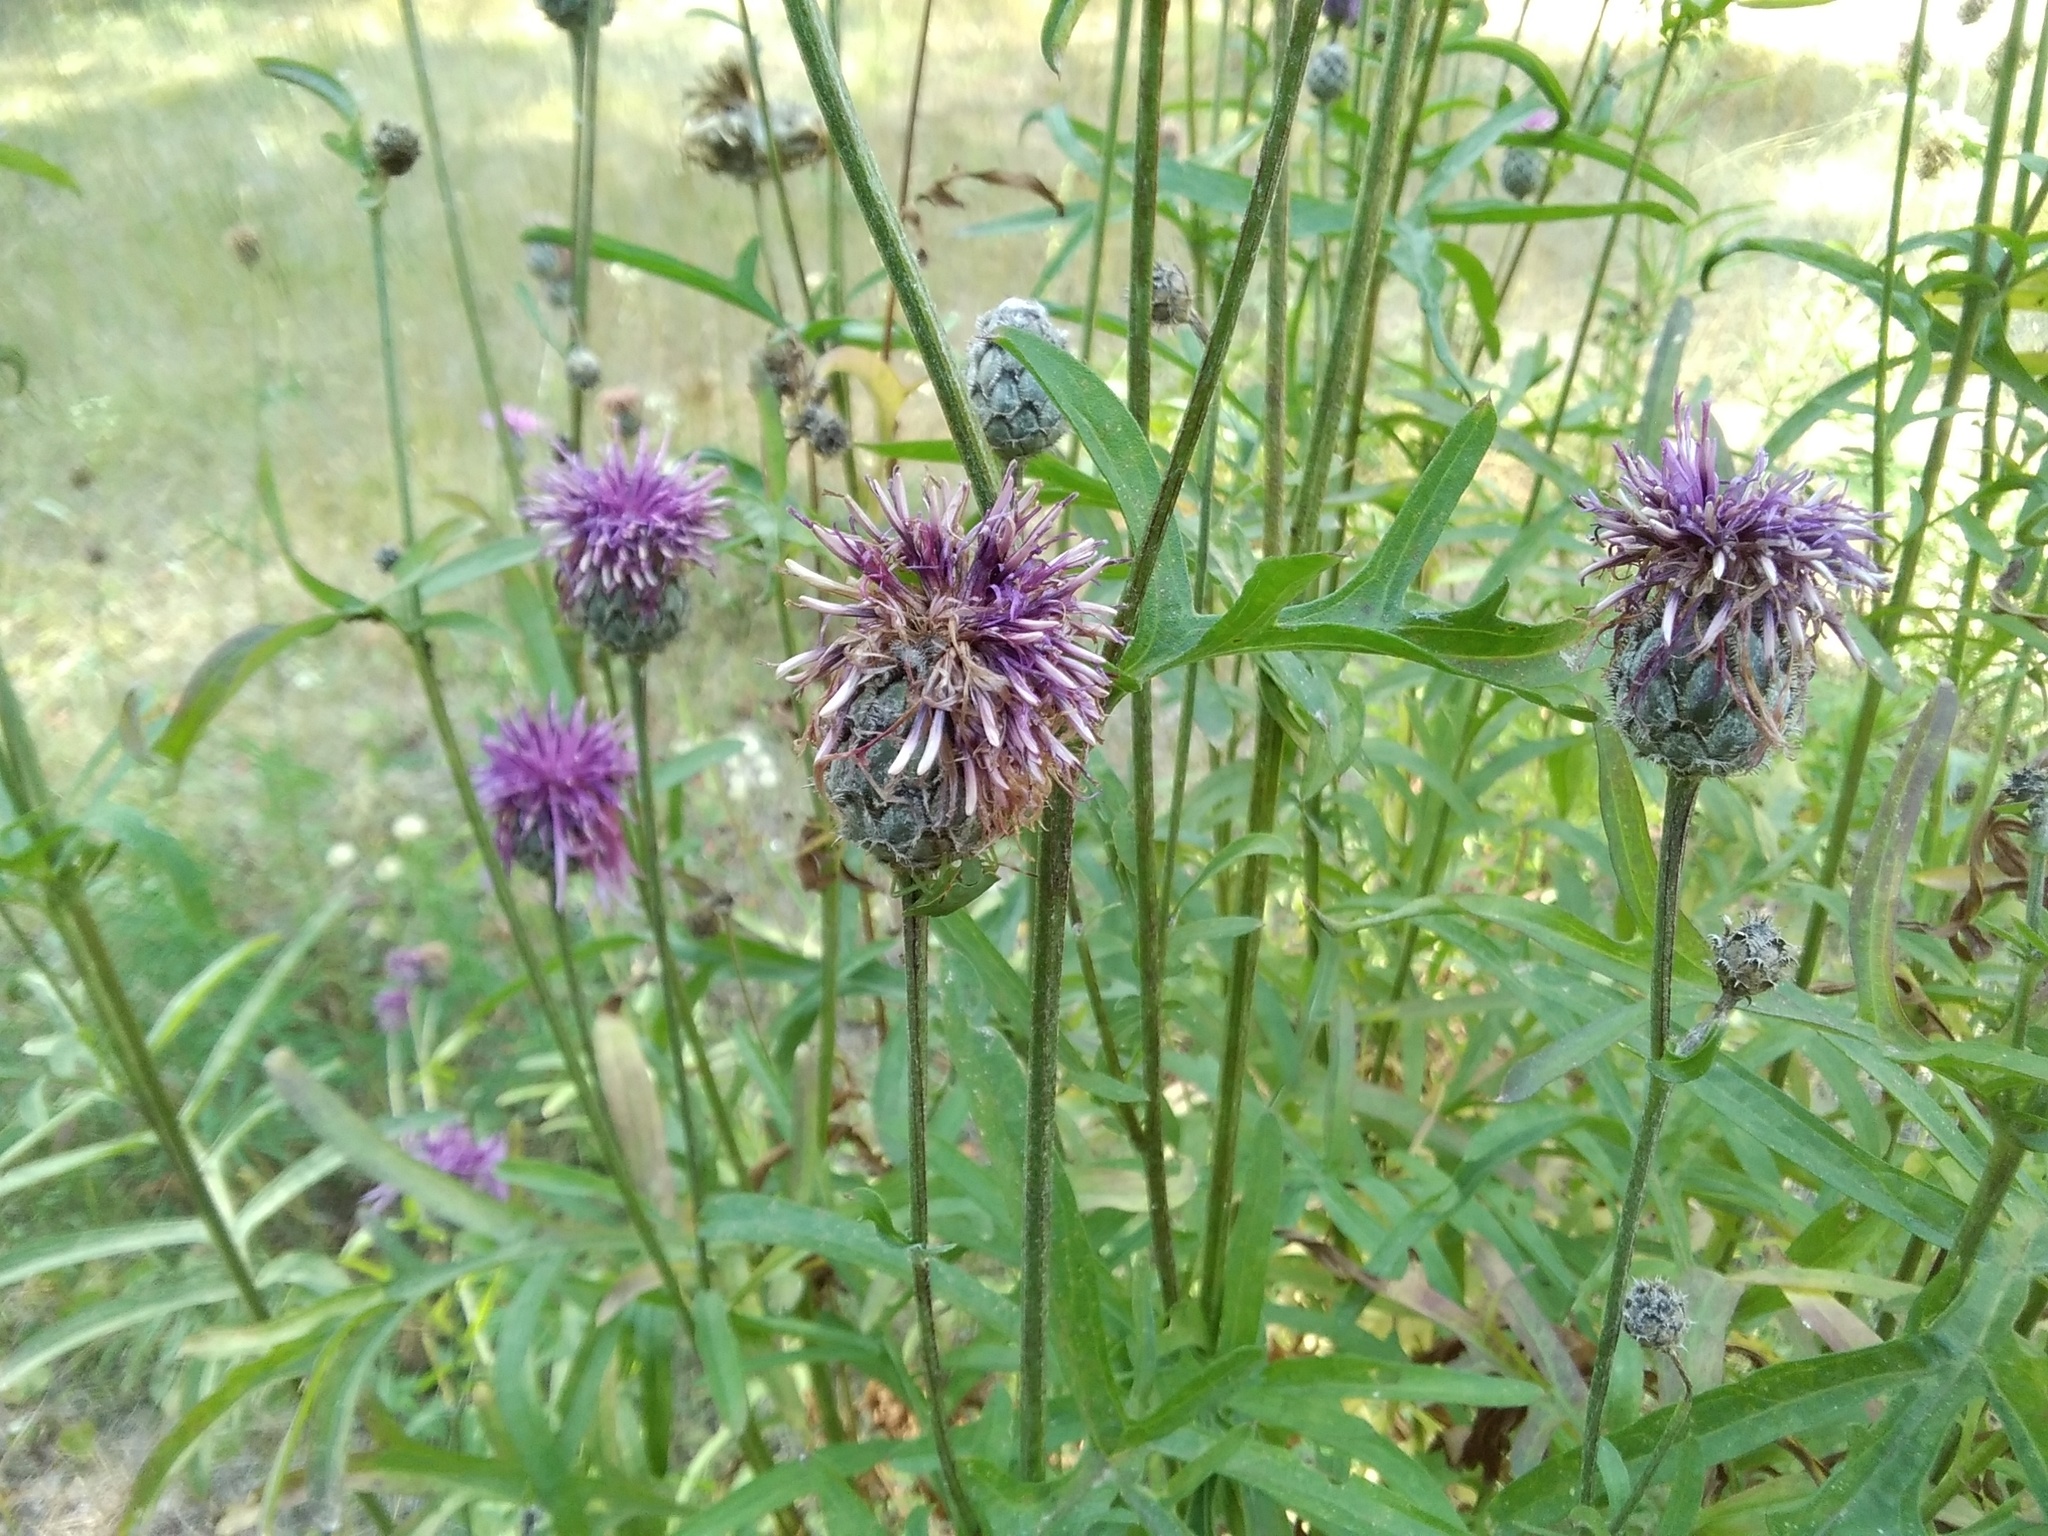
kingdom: Plantae
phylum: Tracheophyta
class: Magnoliopsida
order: Asterales
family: Asteraceae
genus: Centaurea
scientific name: Centaurea scabiosa
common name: Greater knapweed
